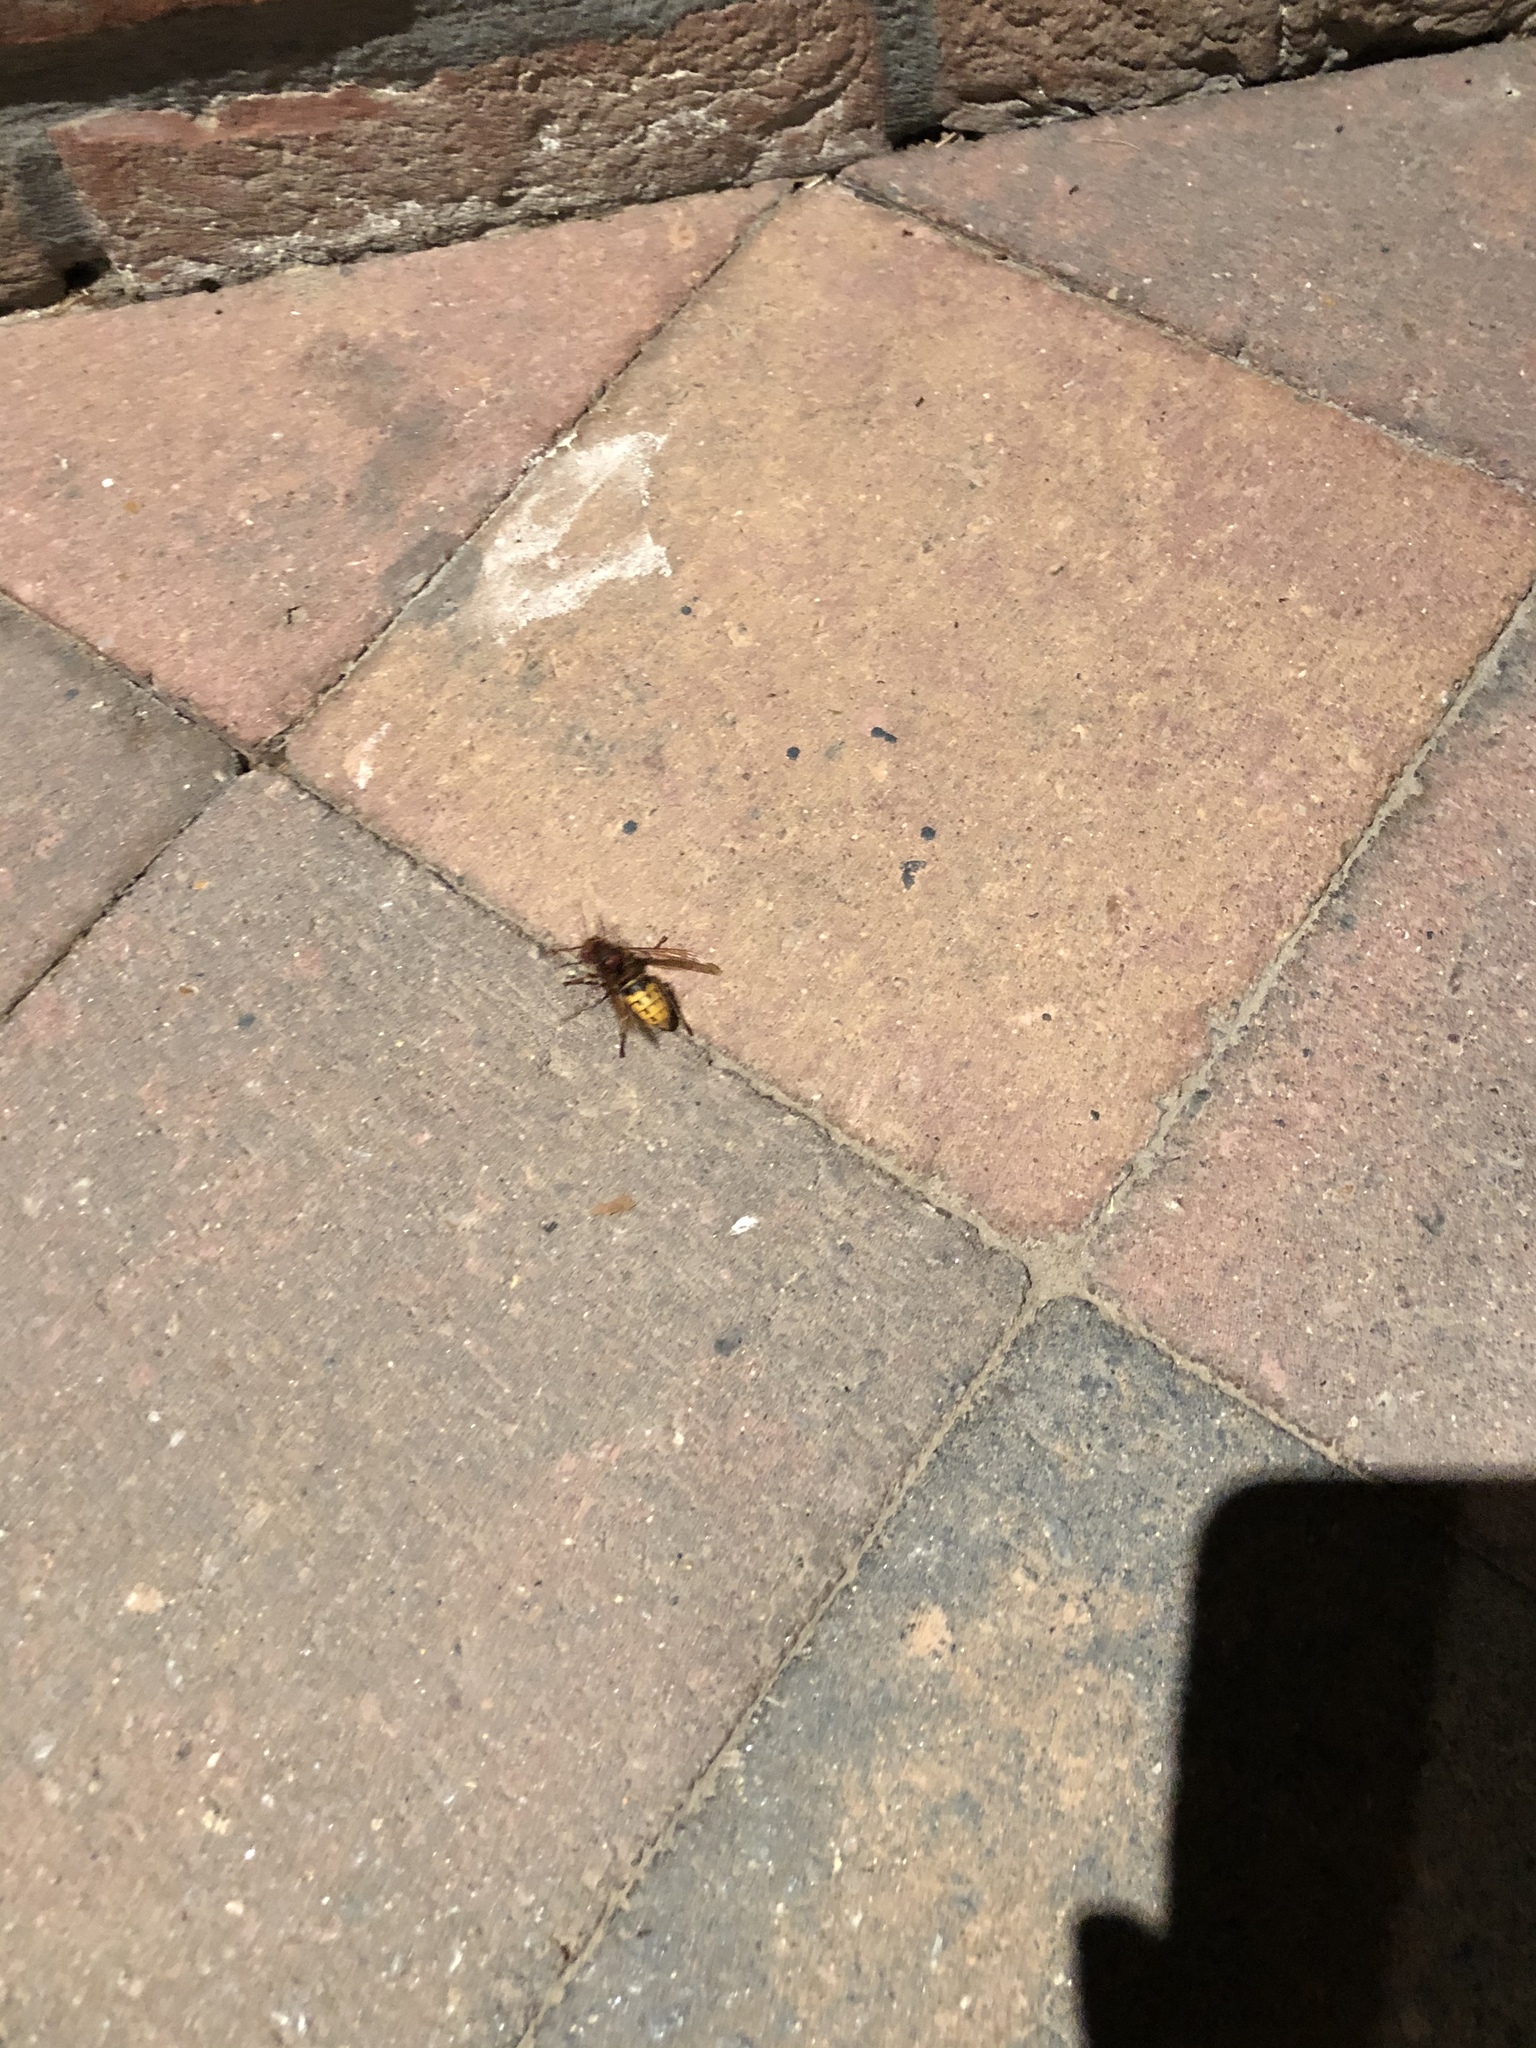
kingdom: Animalia
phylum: Arthropoda
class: Insecta
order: Hymenoptera
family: Vespidae
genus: Vespa
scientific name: Vespa crabro
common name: Hornet
